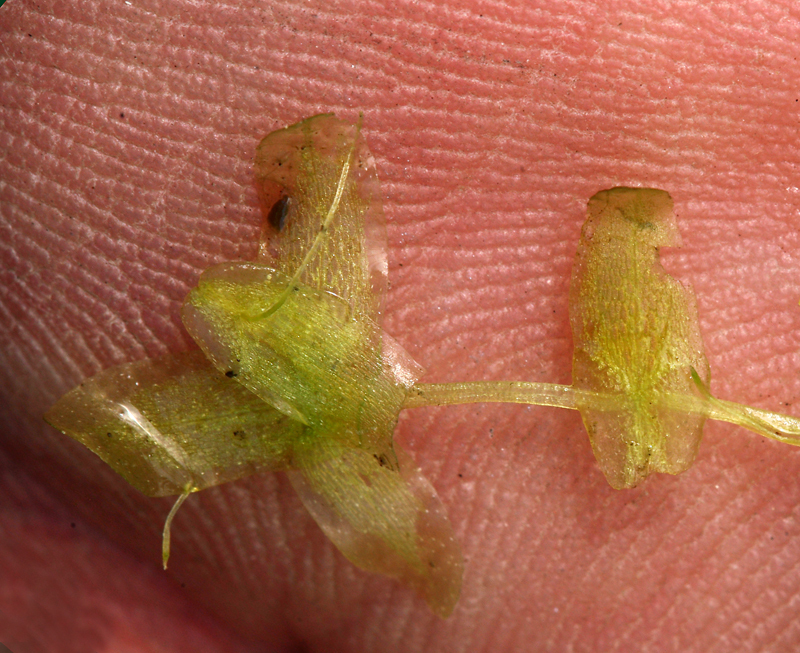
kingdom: Plantae
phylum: Tracheophyta
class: Liliopsida
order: Alismatales
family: Araceae
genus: Lemna
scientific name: Lemna trisulca
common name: Ivy-leaved duckweed
